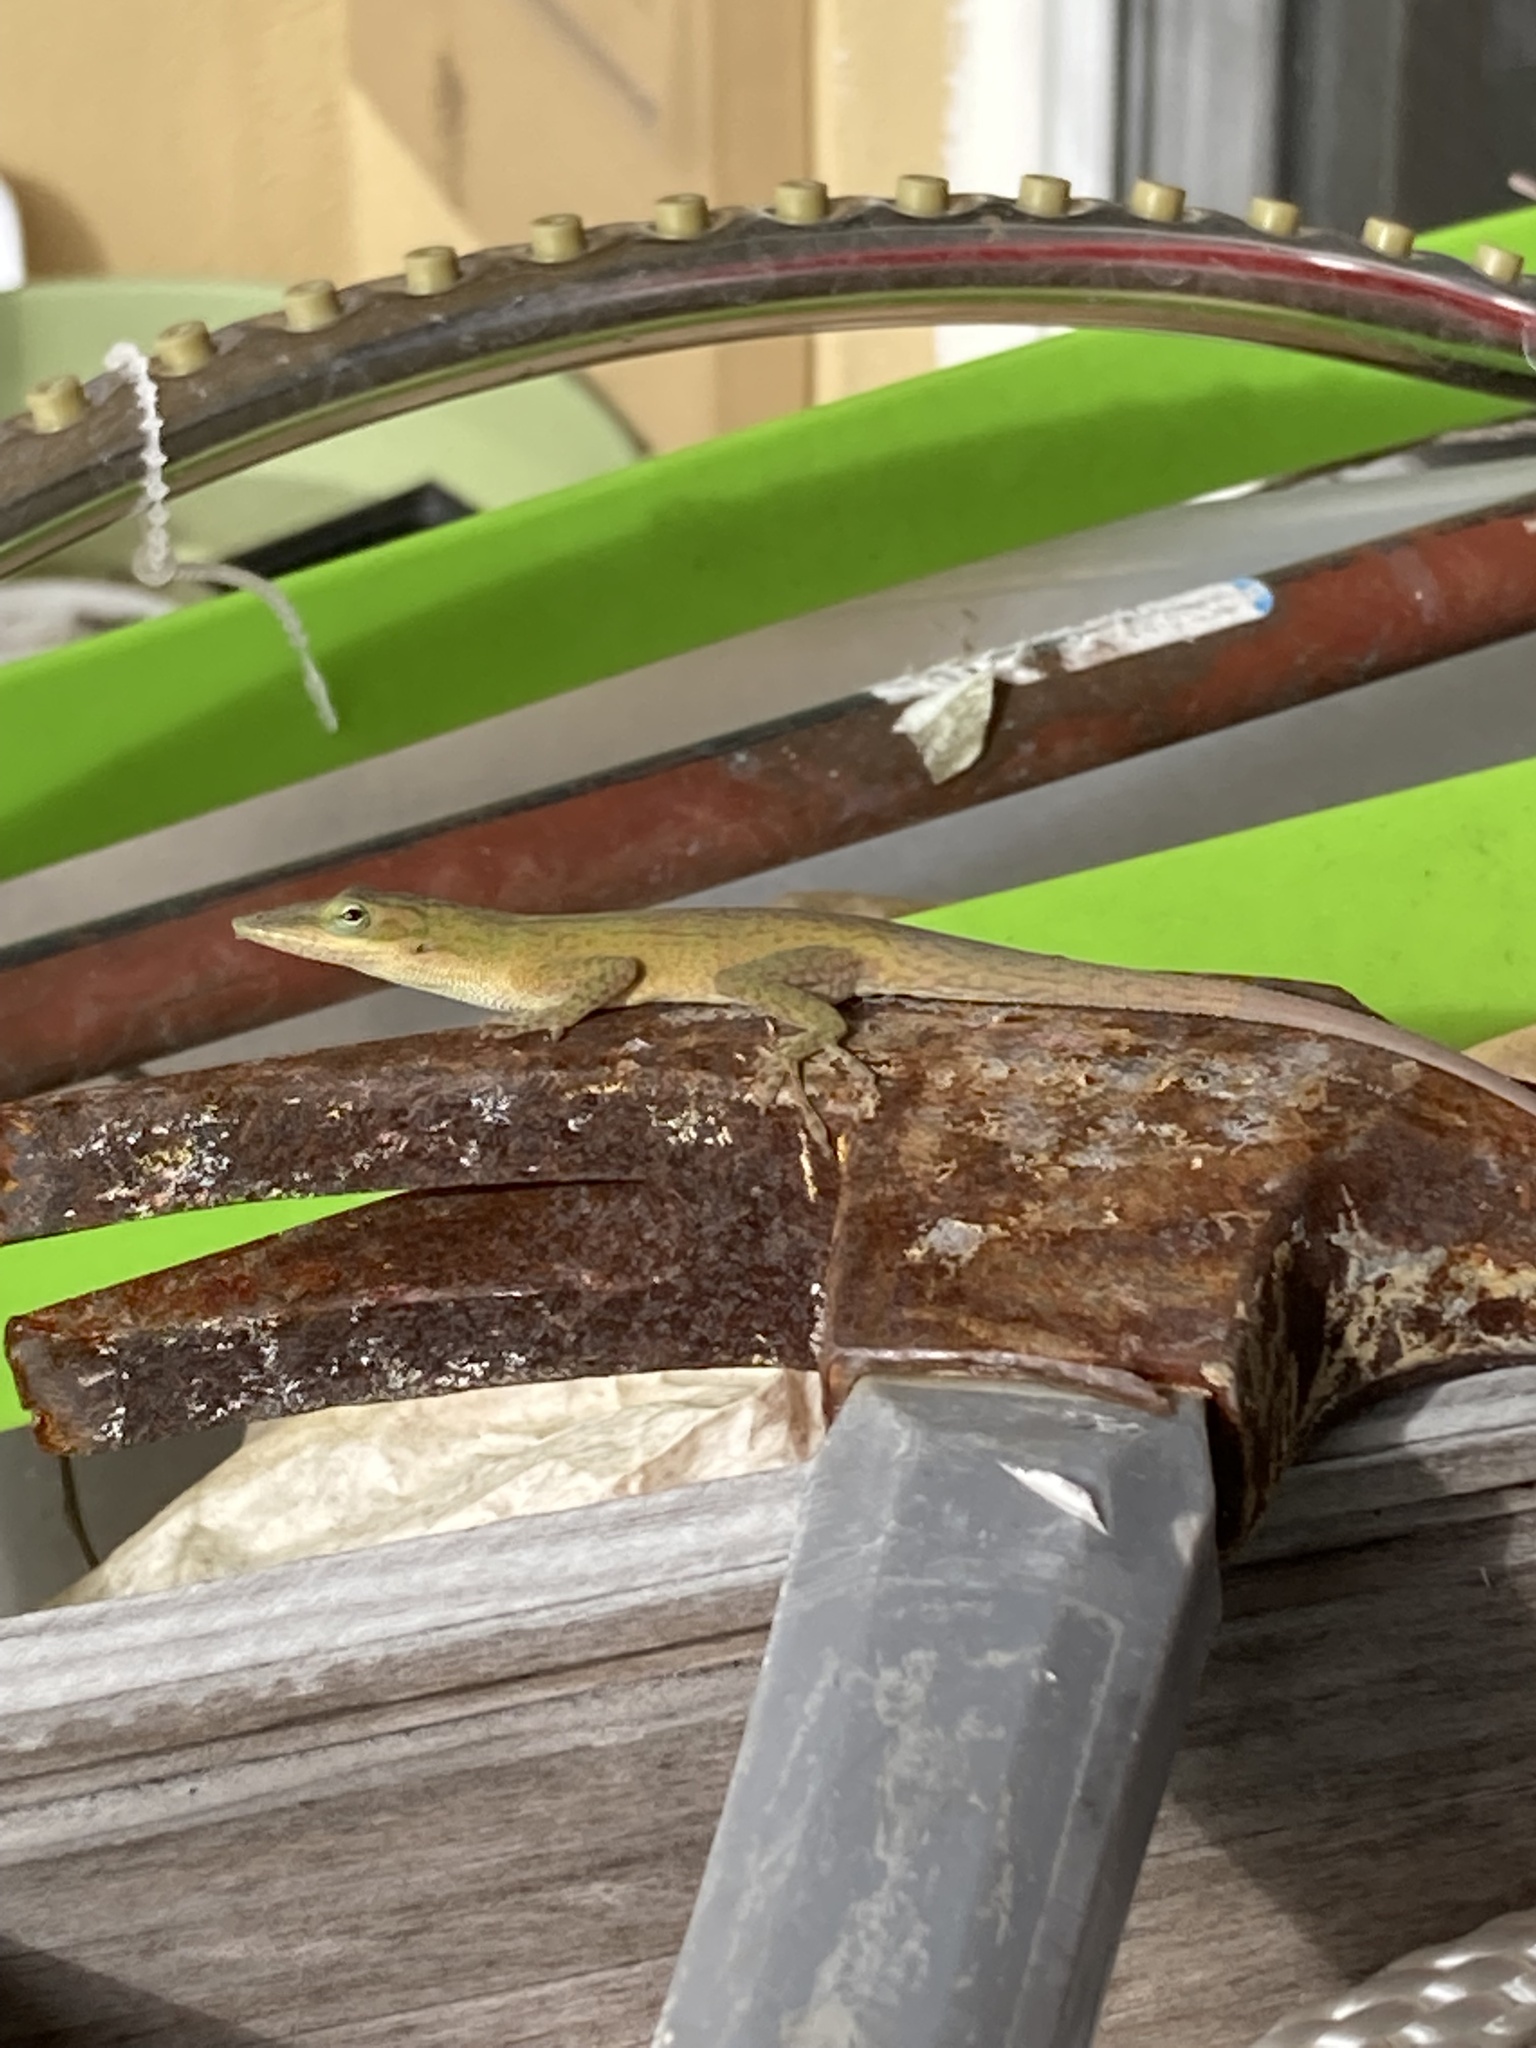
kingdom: Animalia
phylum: Chordata
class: Squamata
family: Dactyloidae
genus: Anolis
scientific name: Anolis carolinensis
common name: Green anole
